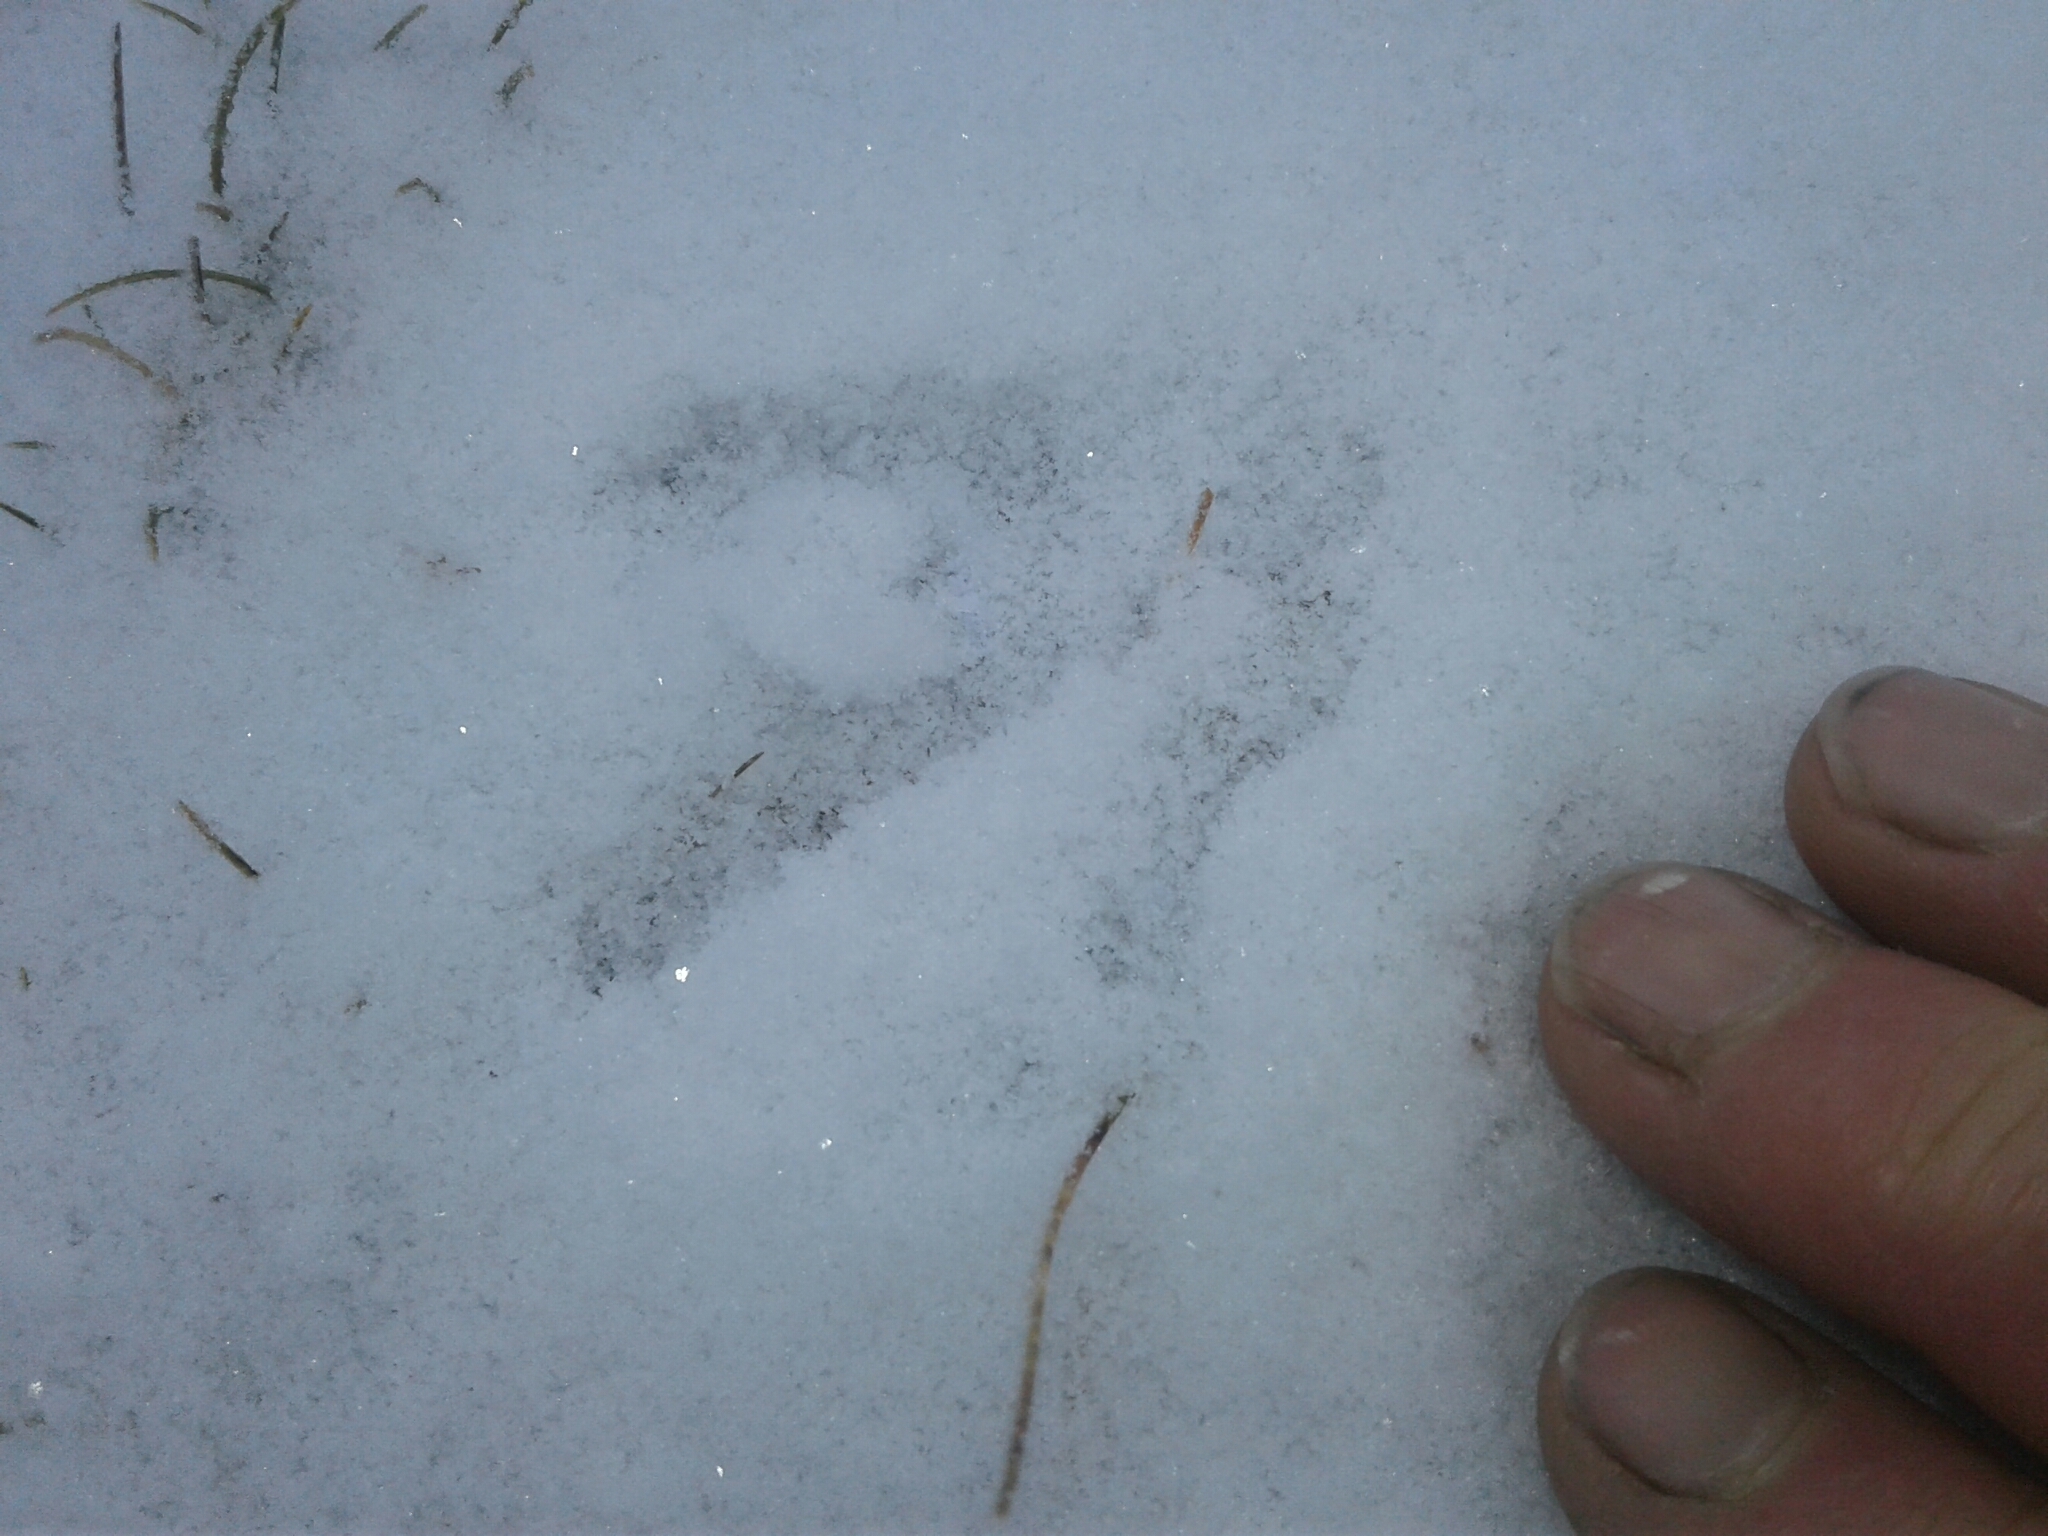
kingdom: Animalia
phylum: Chordata
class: Aves
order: Gruiformes
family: Rallidae
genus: Gallirallus
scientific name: Gallirallus australis
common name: Weka
